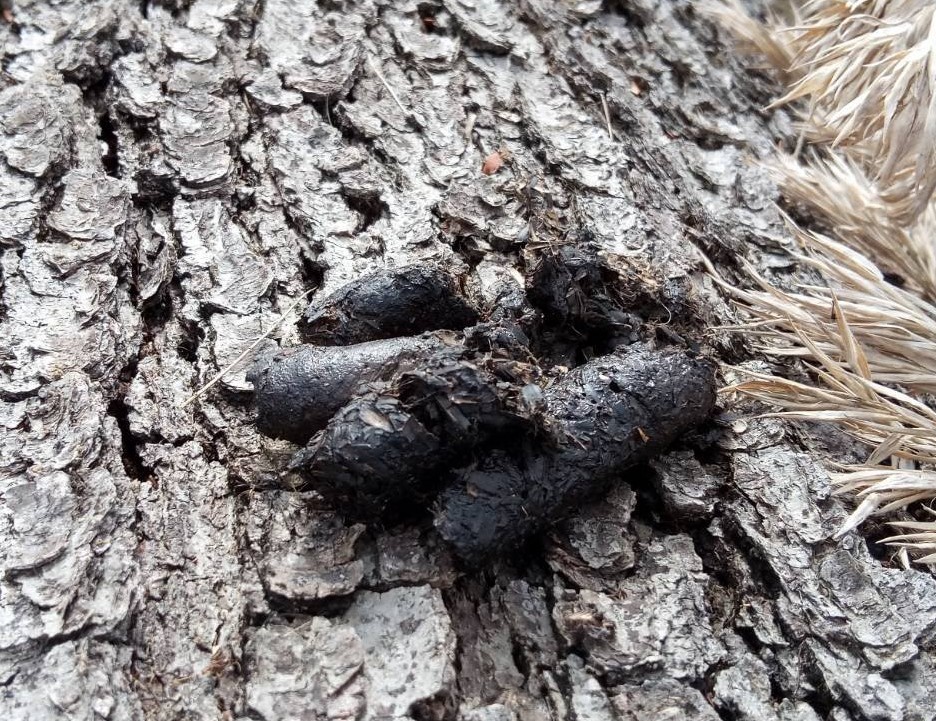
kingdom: Animalia
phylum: Chordata
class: Mammalia
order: Carnivora
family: Procyonidae
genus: Procyon
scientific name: Procyon lotor
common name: Raccoon
